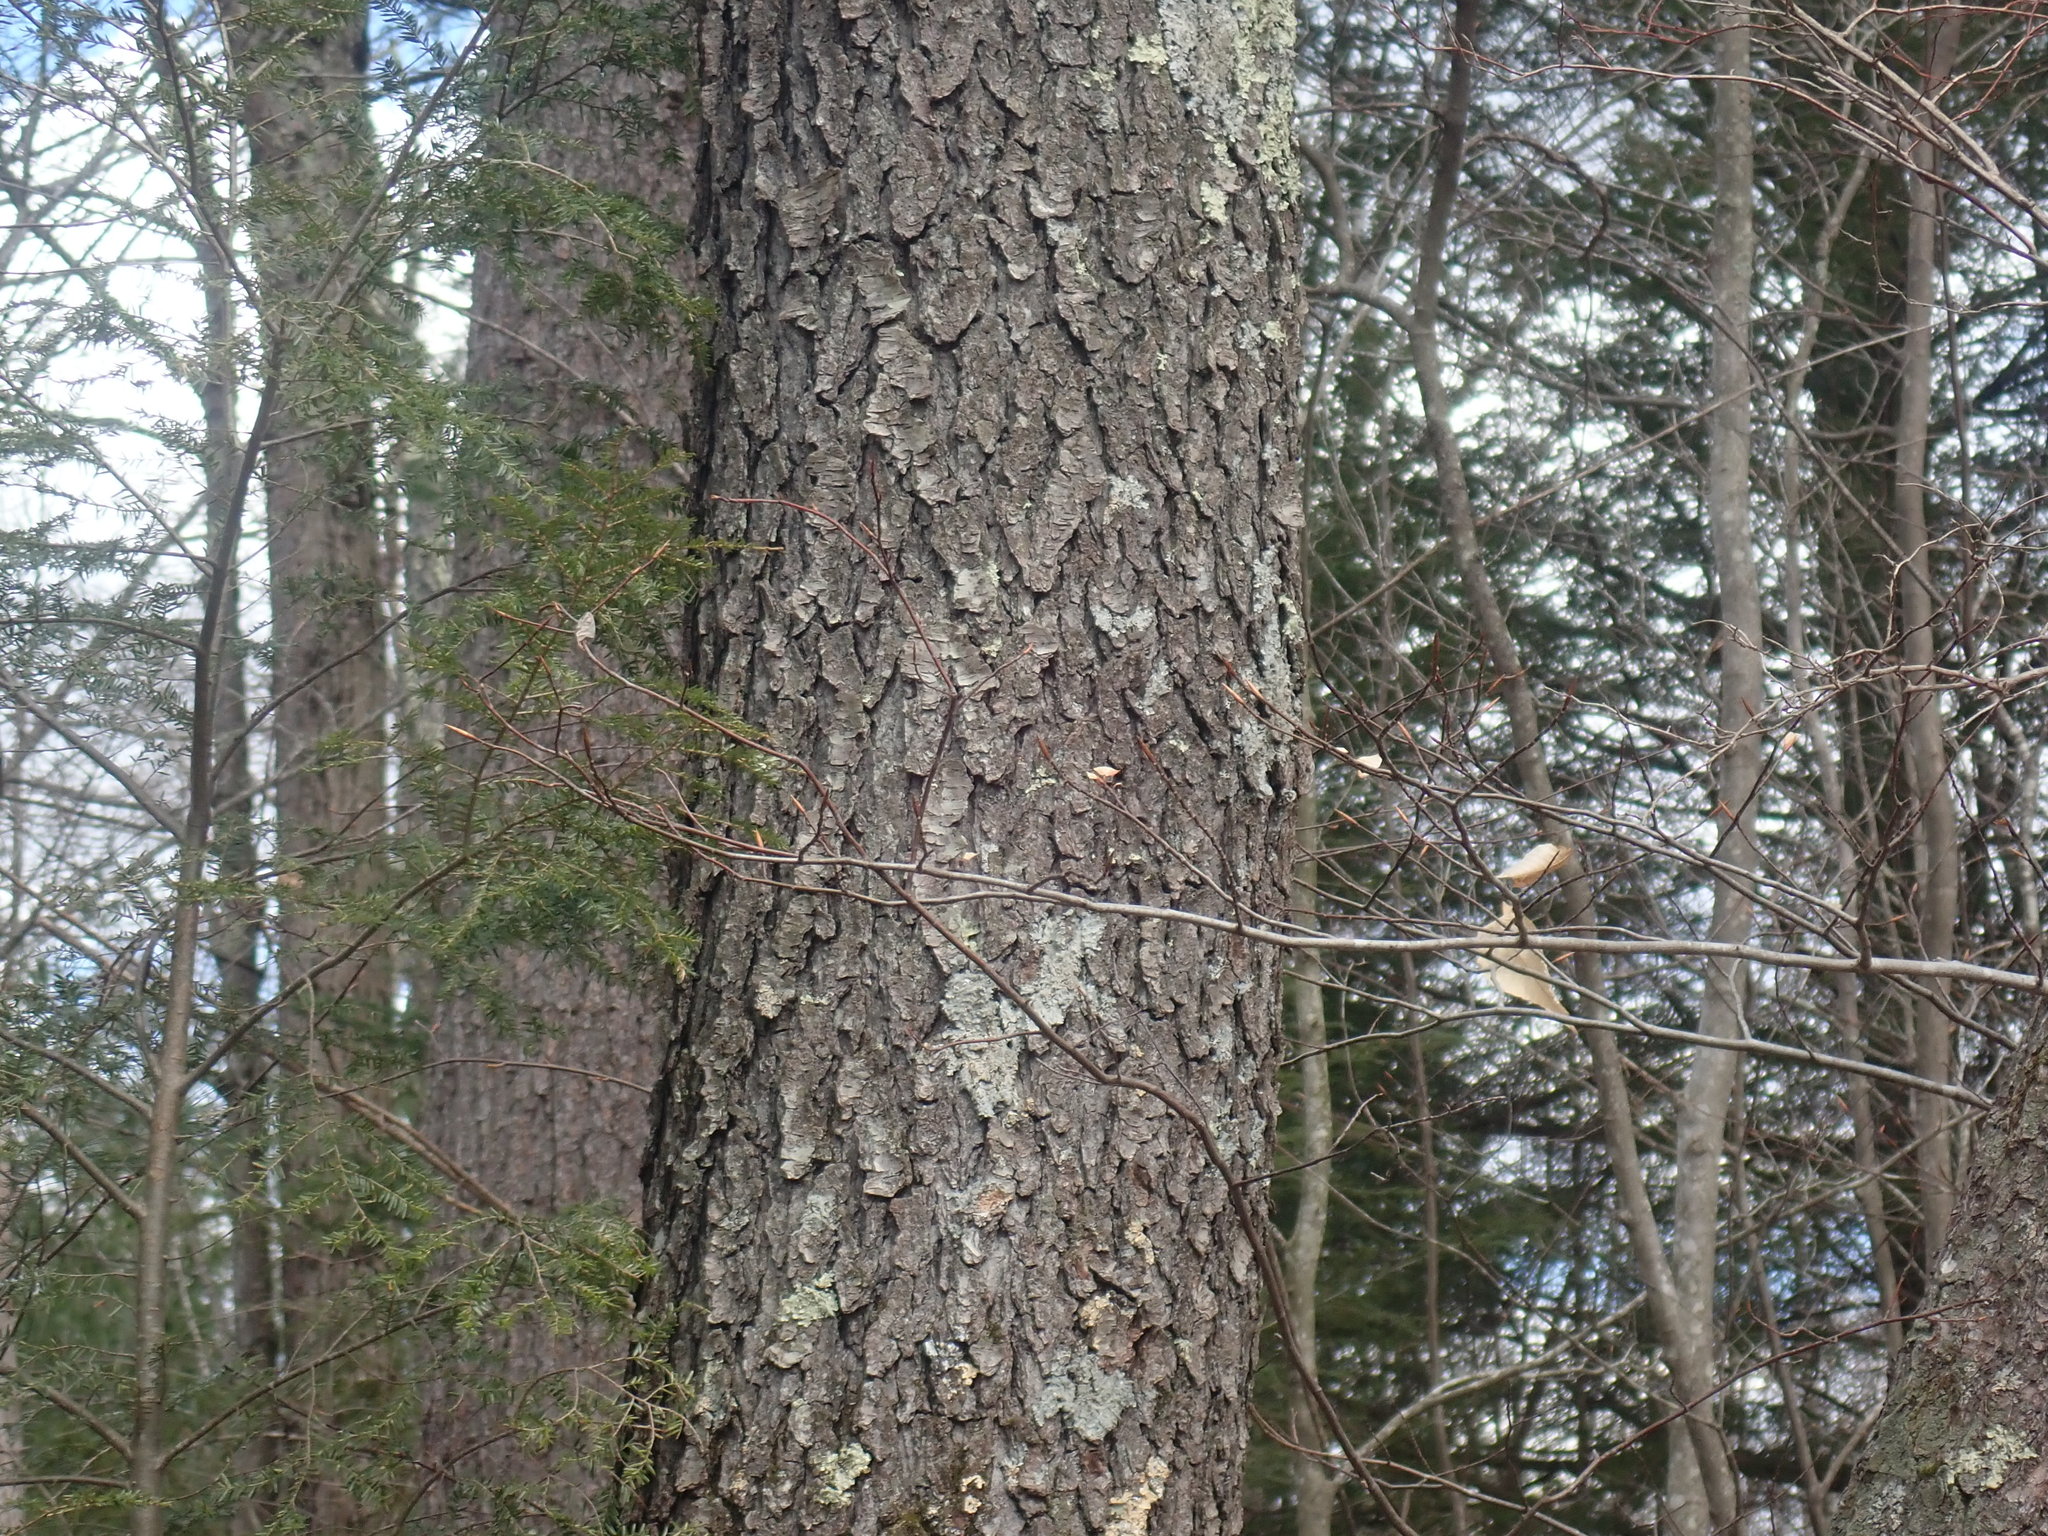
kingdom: Plantae
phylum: Tracheophyta
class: Magnoliopsida
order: Rosales
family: Rosaceae
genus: Prunus
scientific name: Prunus serotina
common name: Black cherry
